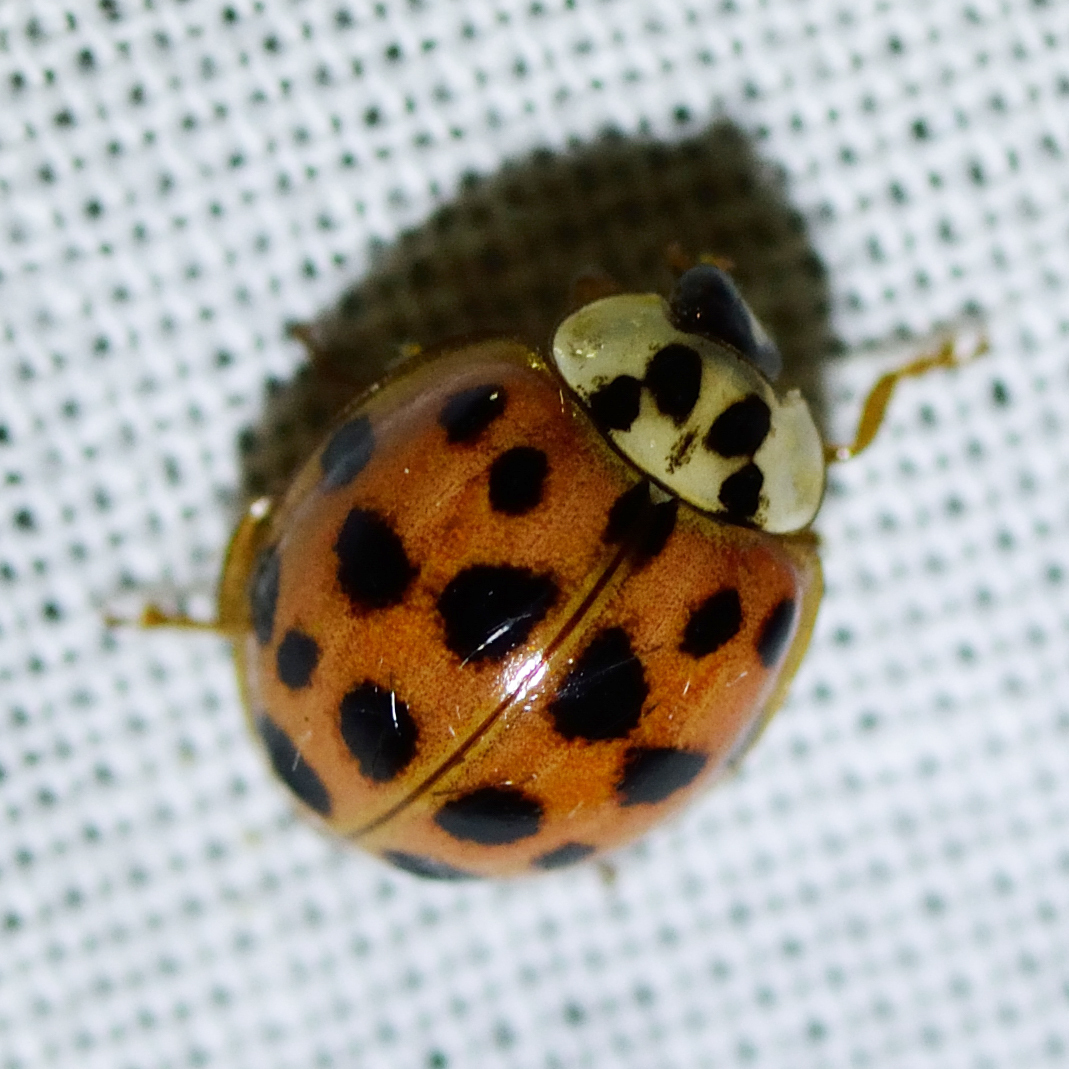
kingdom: Animalia
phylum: Arthropoda
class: Insecta
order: Coleoptera
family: Coccinellidae
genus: Harmonia
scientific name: Harmonia axyridis
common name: Harlequin ladybird
